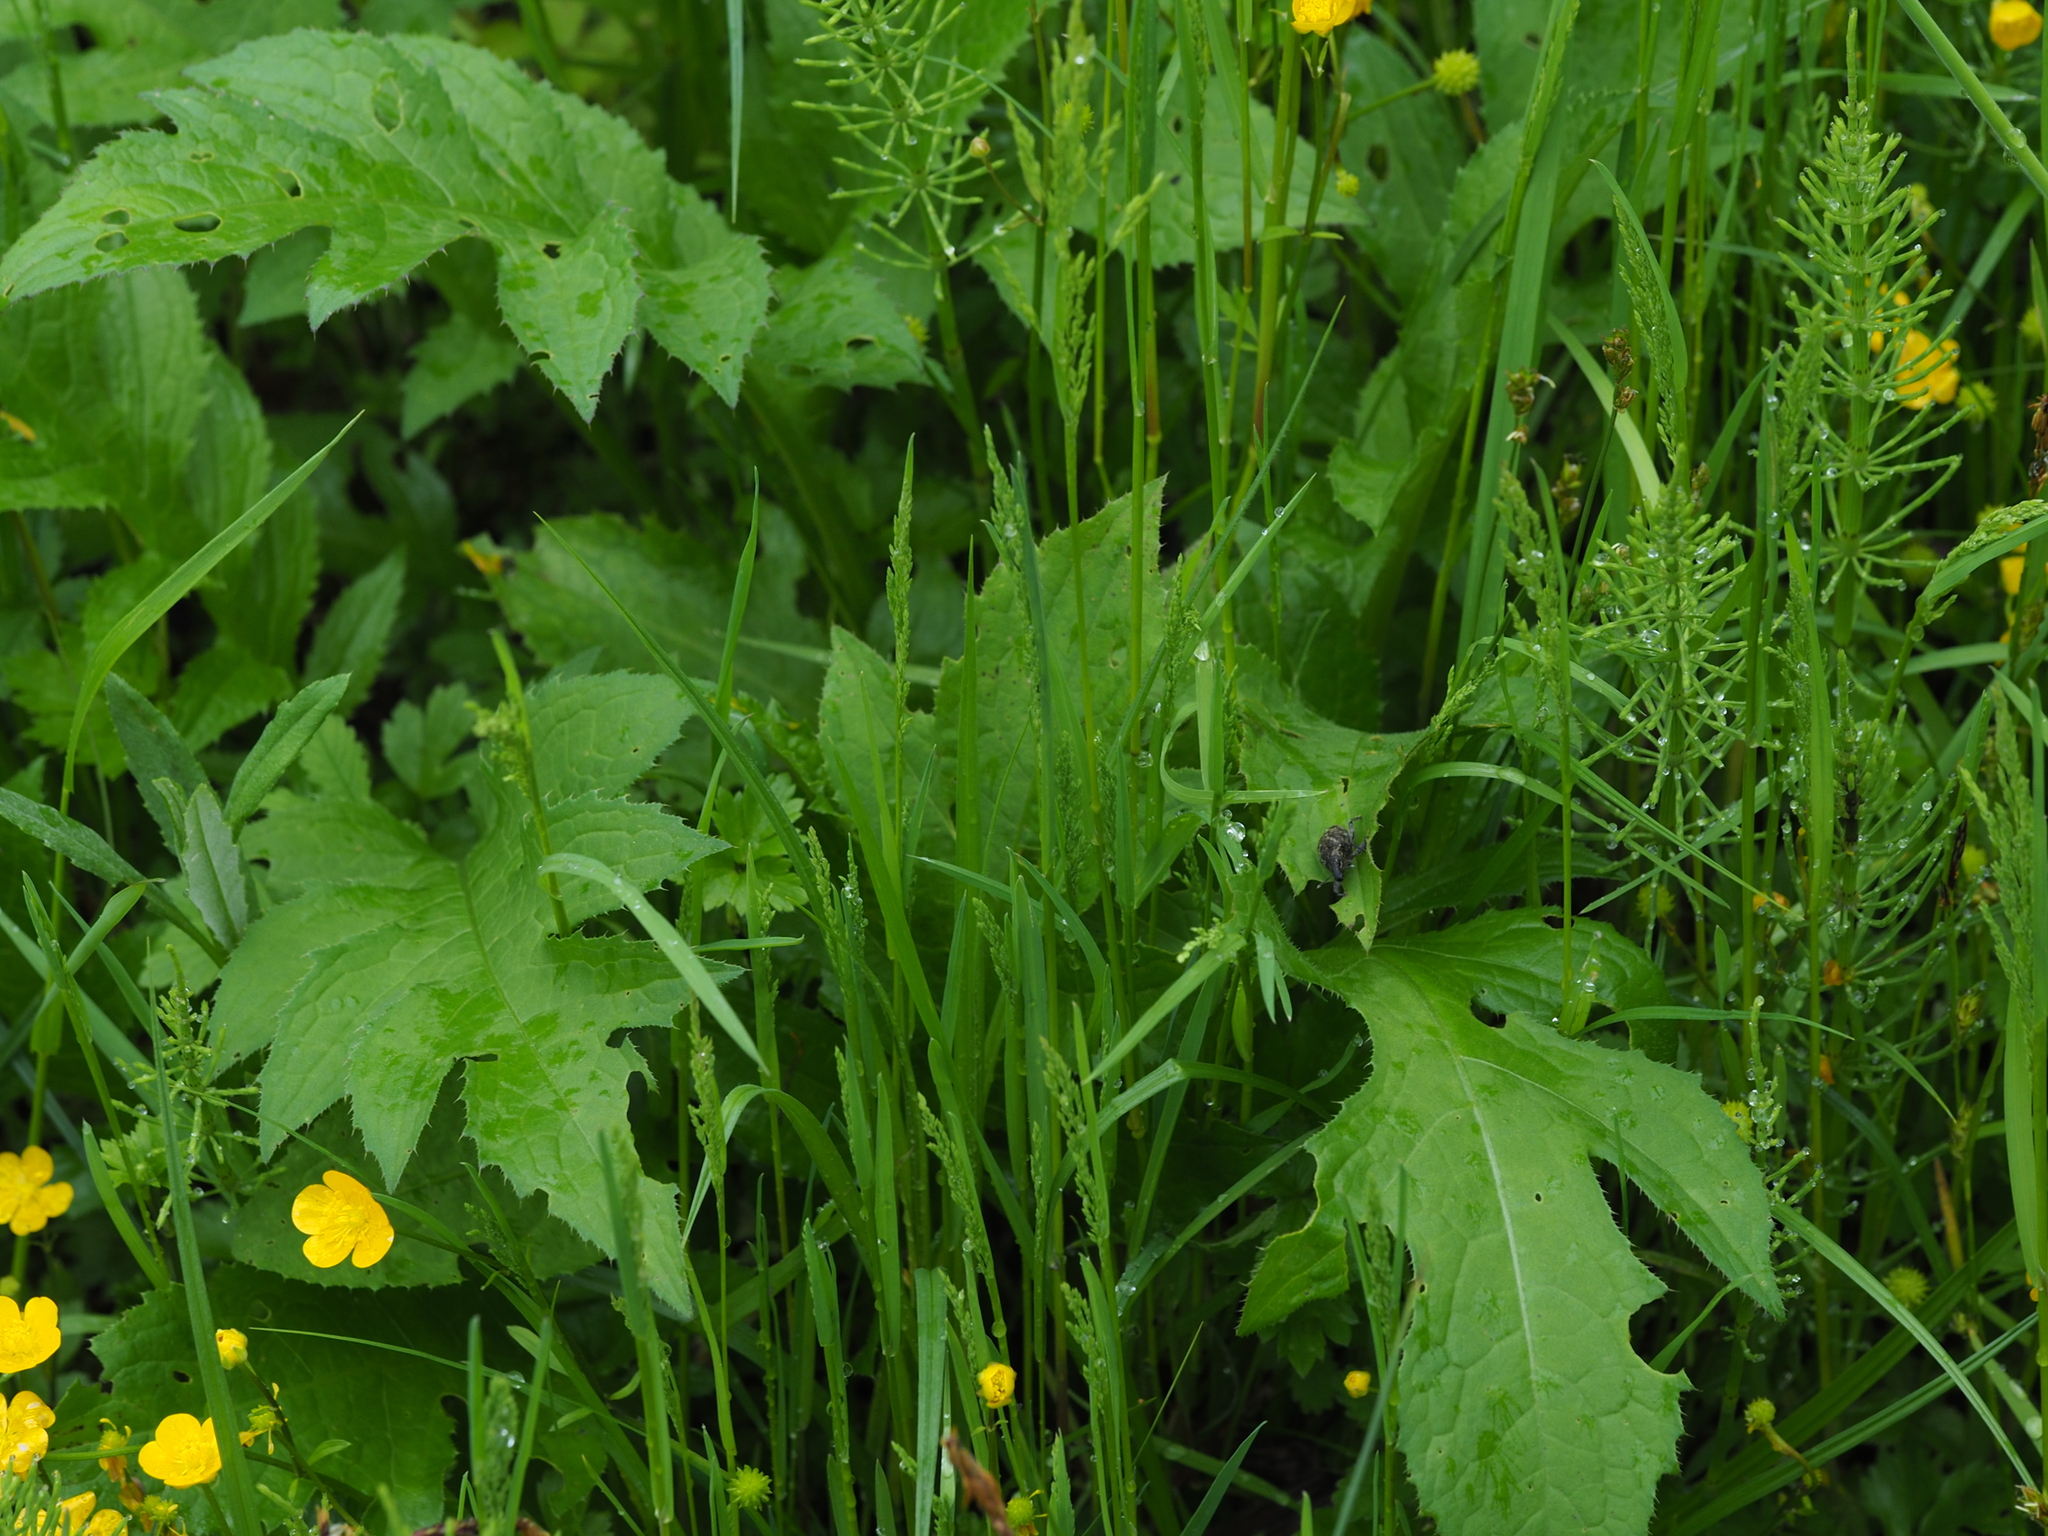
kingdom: Plantae
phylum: Tracheophyta
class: Magnoliopsida
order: Asterales
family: Asteraceae
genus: Cirsium
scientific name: Cirsium oleraceum
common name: Cabbage thistle
